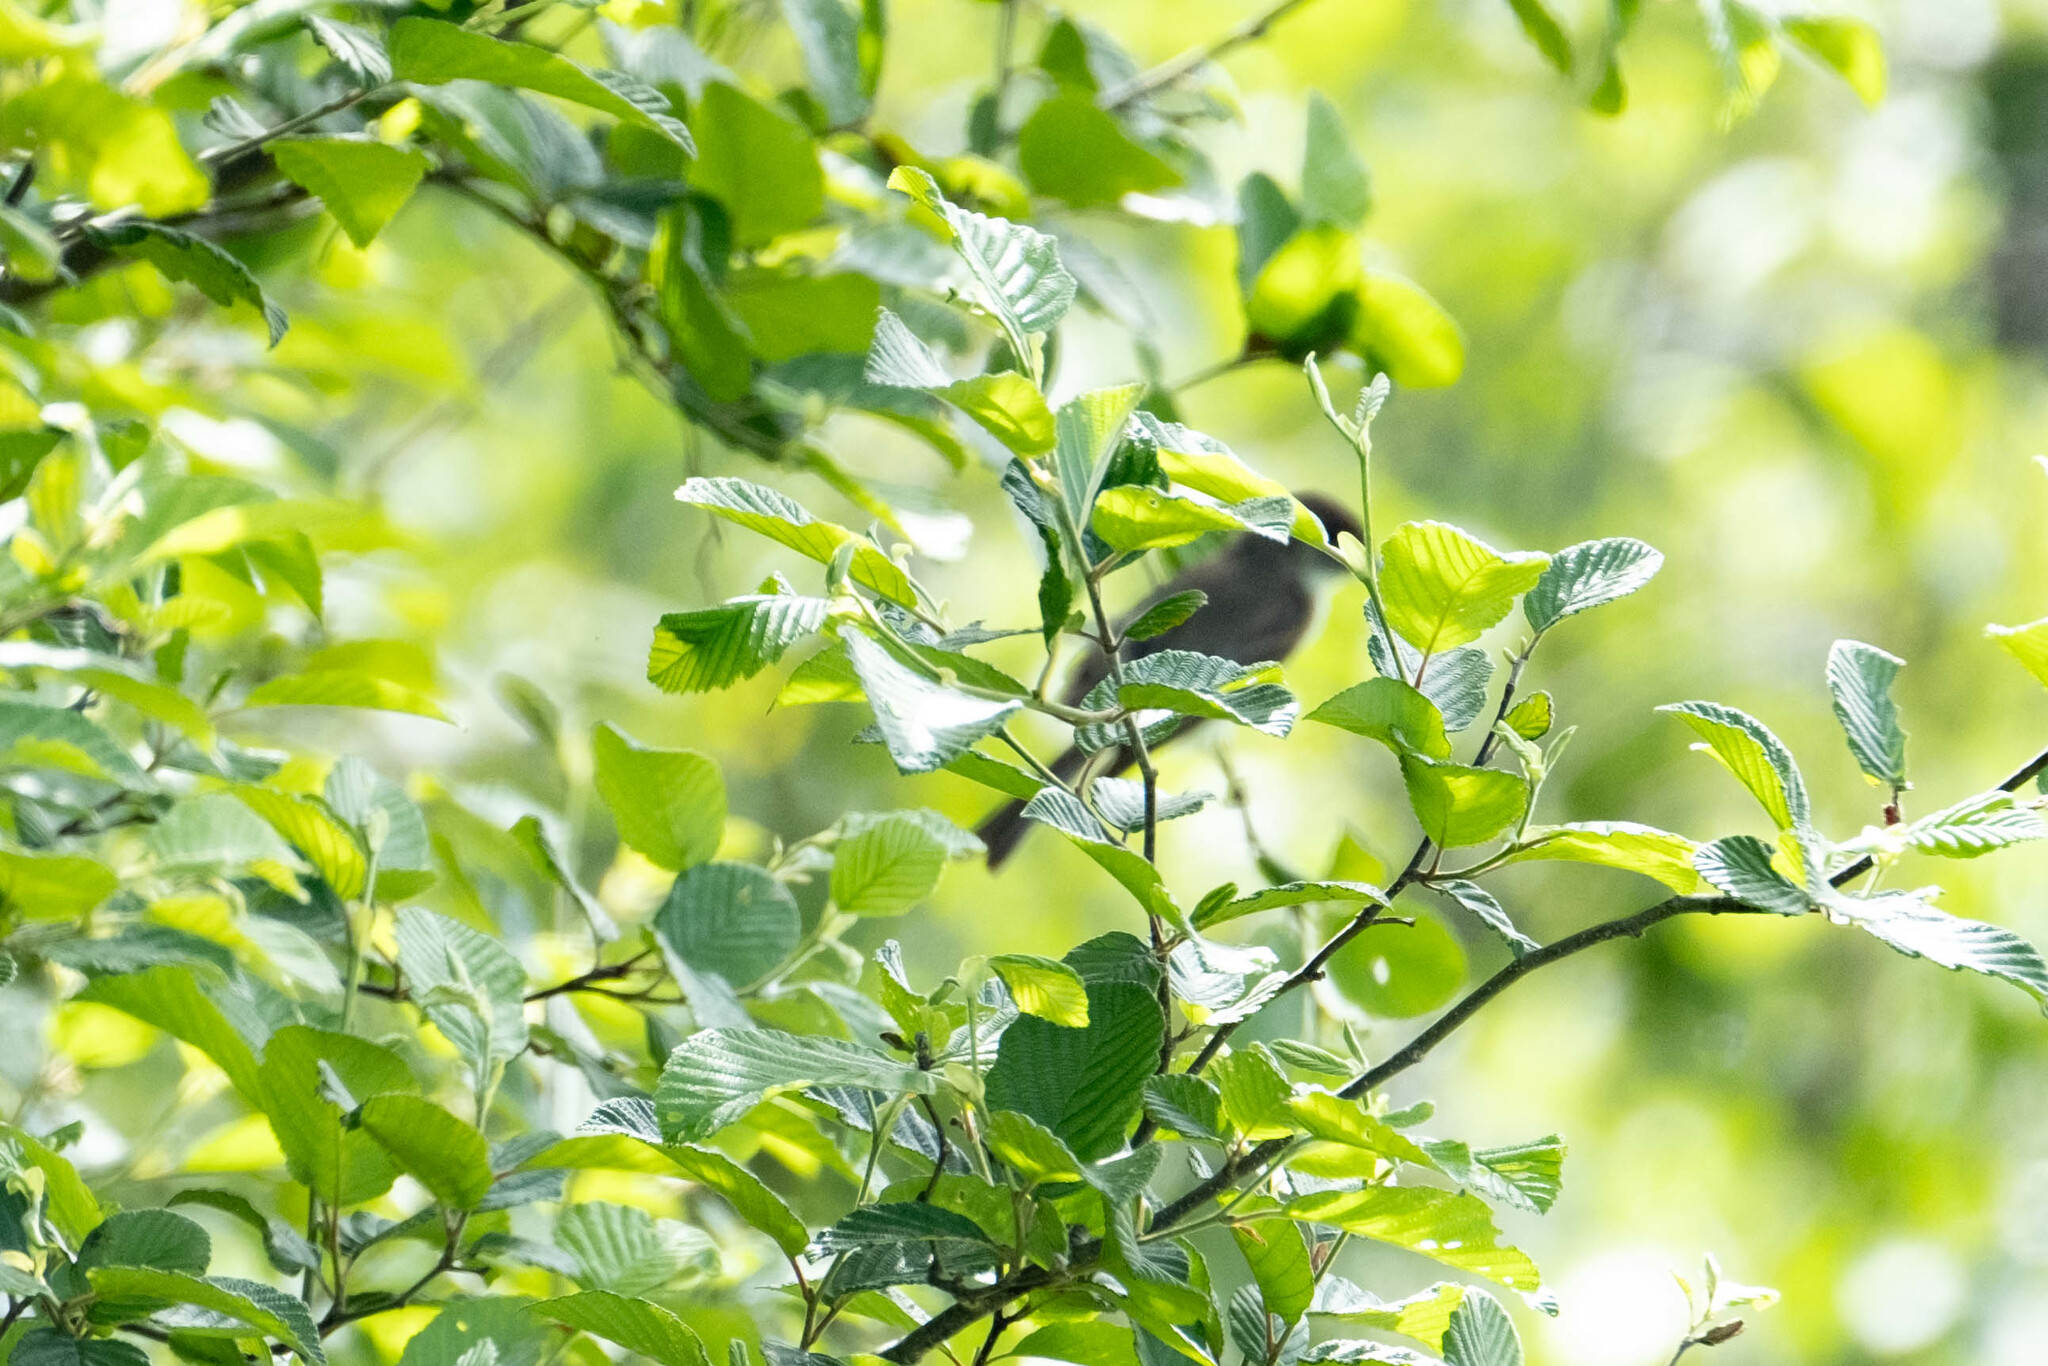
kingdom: Animalia
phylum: Chordata
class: Aves
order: Passeriformes
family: Parulidae
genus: Setophaga
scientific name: Setophaga ruticilla
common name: American redstart
